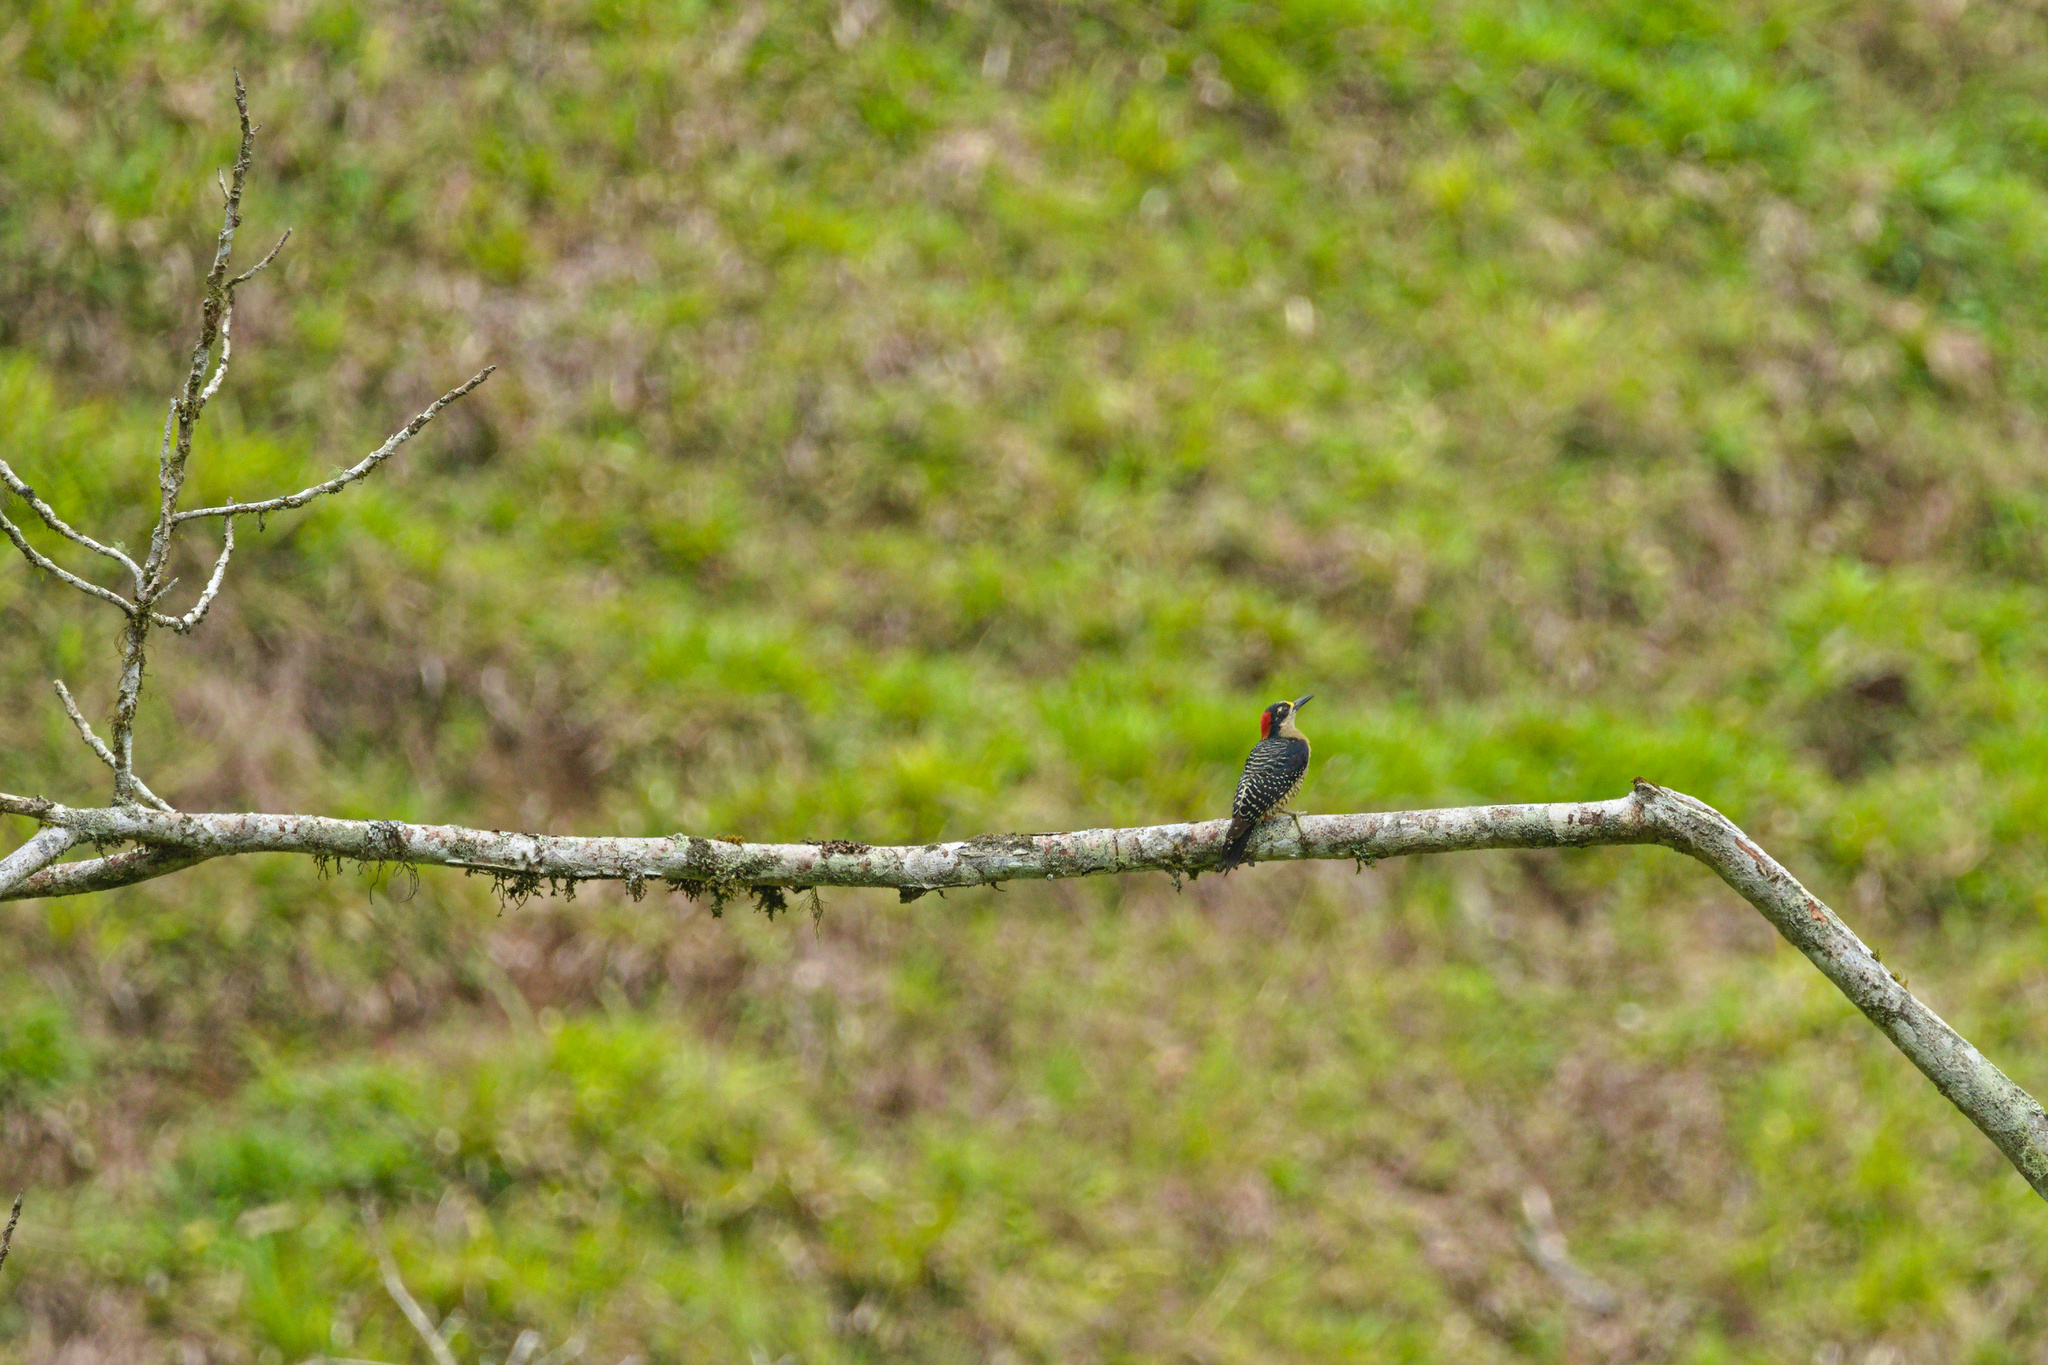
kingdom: Animalia
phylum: Chordata
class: Aves
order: Piciformes
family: Picidae
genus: Melanerpes
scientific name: Melanerpes pucherani
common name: Black-cheeked woodpecker
